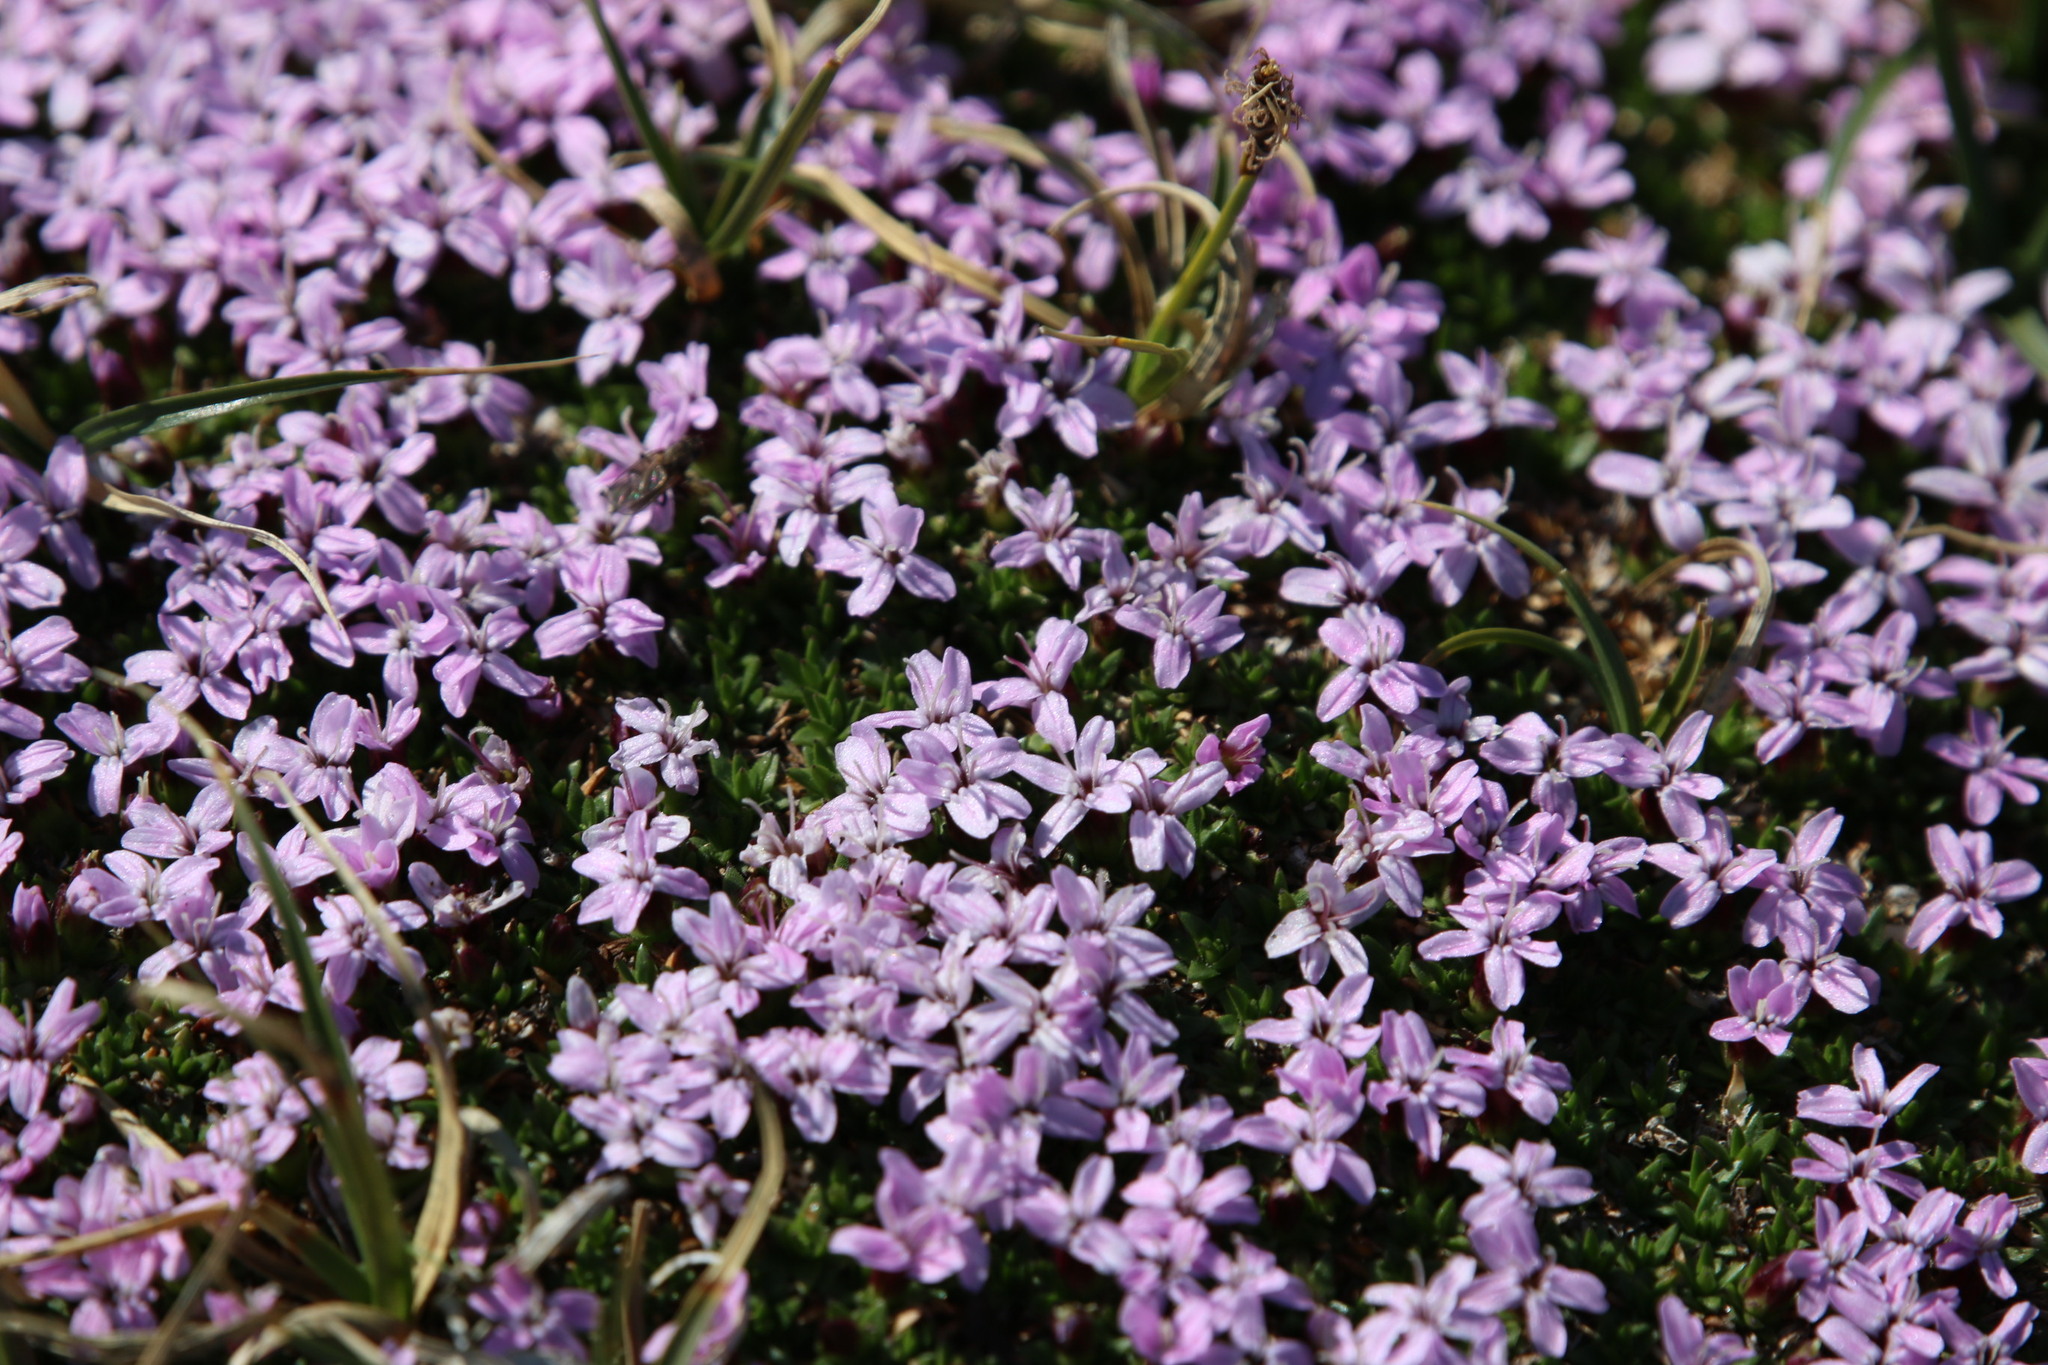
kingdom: Plantae
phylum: Tracheophyta
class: Magnoliopsida
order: Caryophyllales
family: Caryophyllaceae
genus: Silene
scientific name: Silene acaulis
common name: Moss campion
